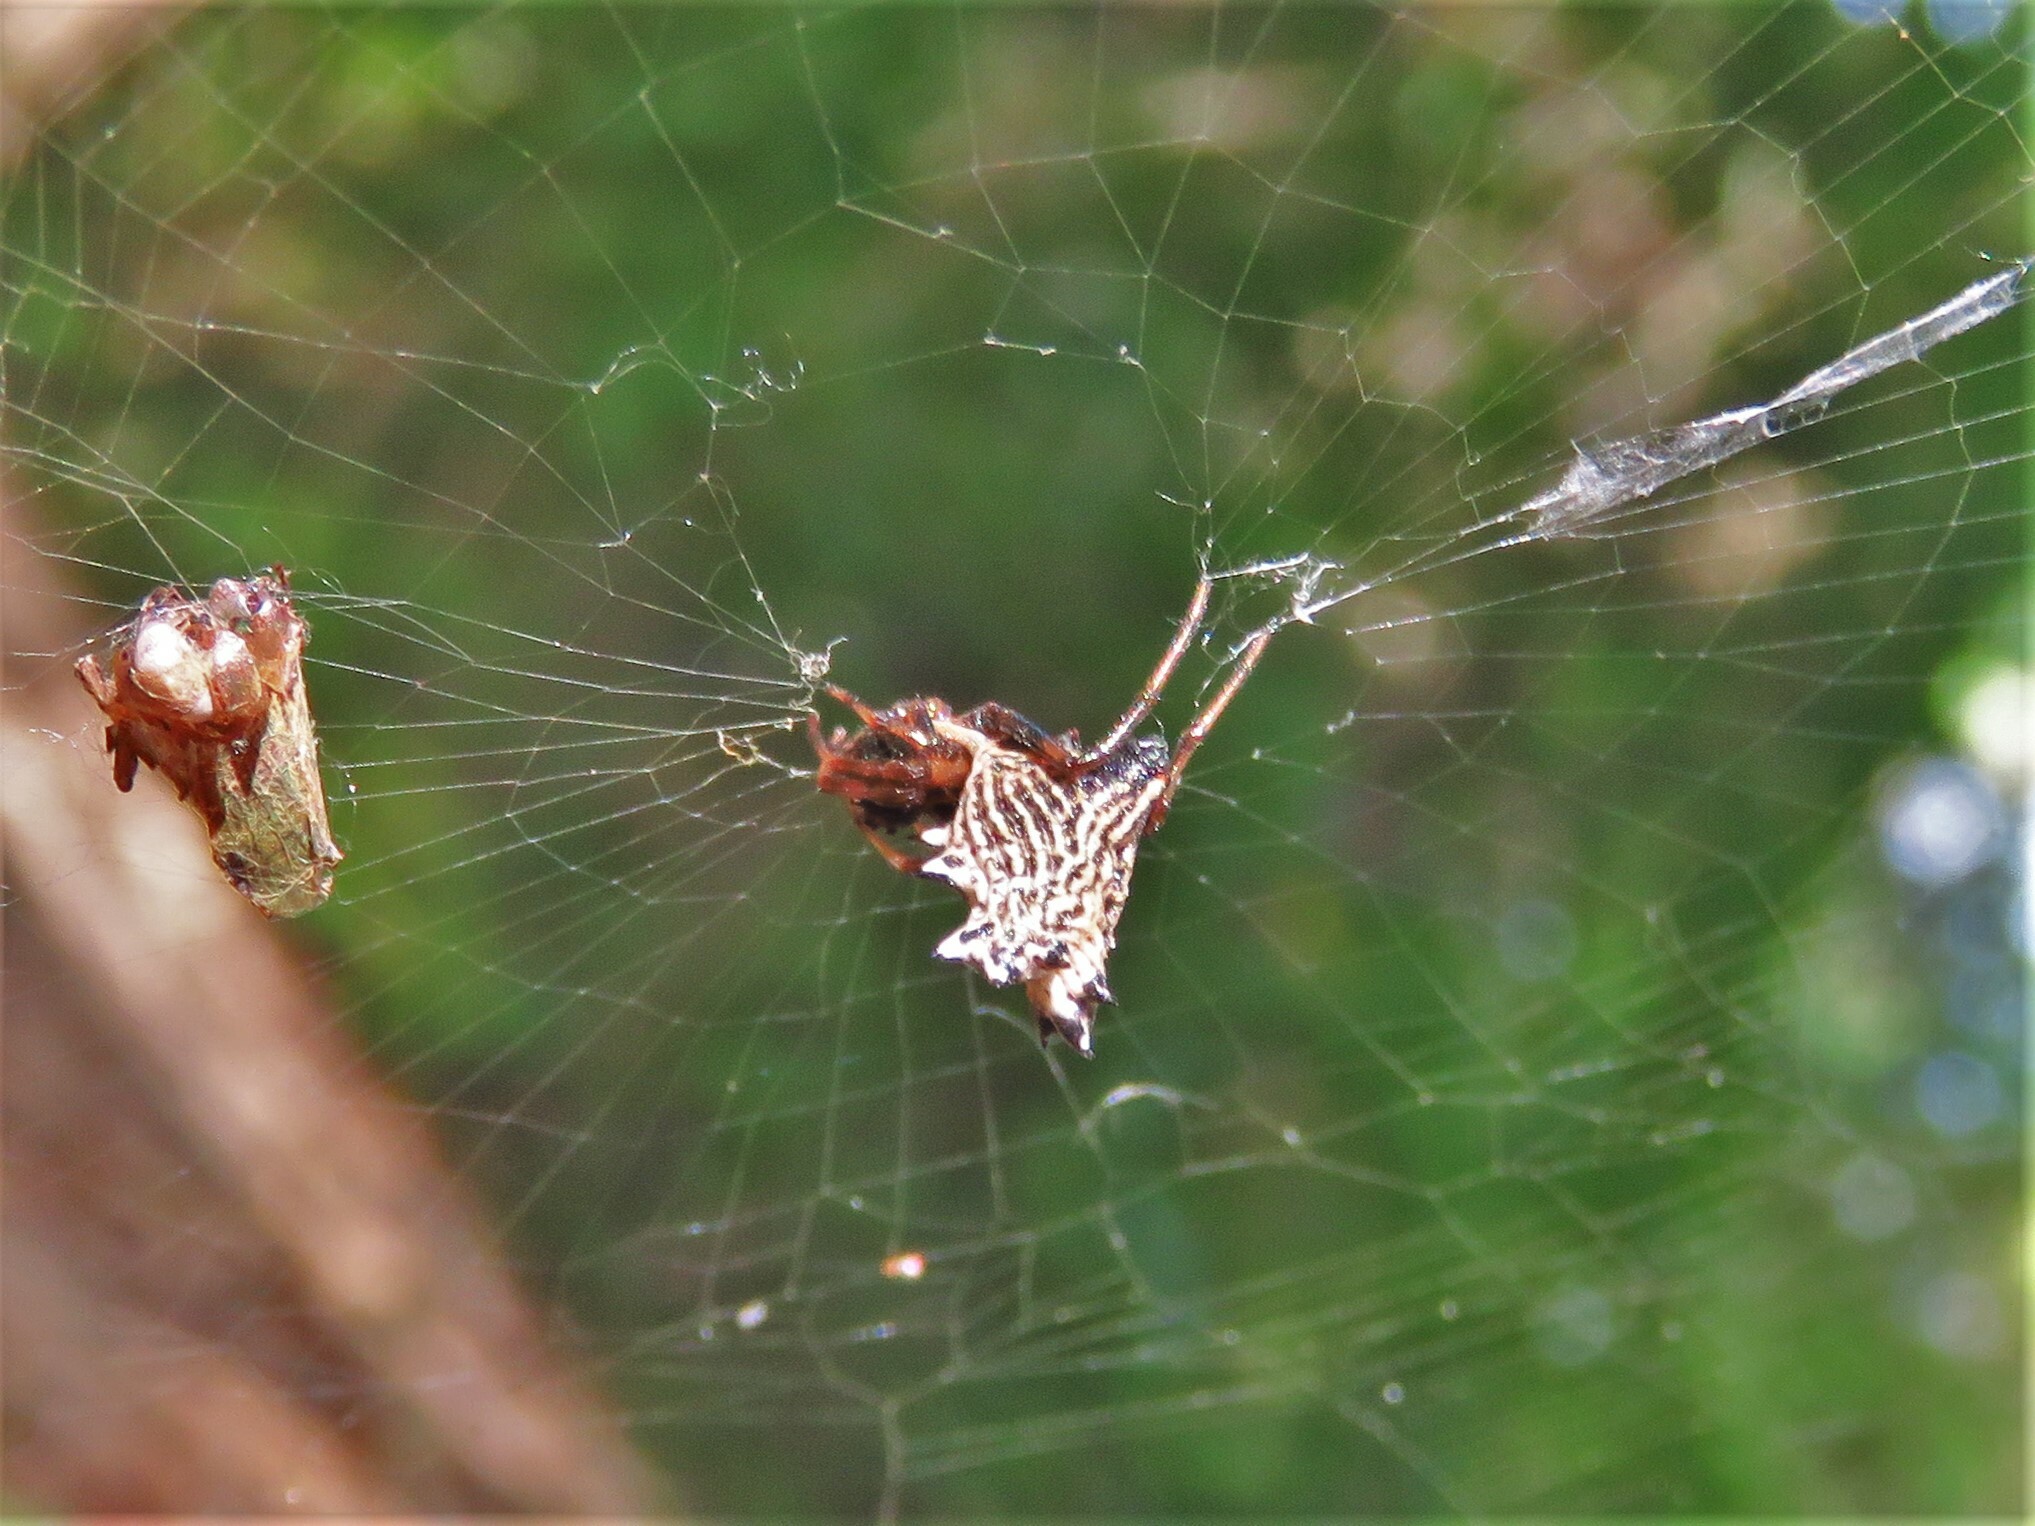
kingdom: Animalia
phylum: Arthropoda
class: Arachnida
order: Araneae
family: Araneidae
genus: Micrathena
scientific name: Micrathena gracilis
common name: Orb weavers
